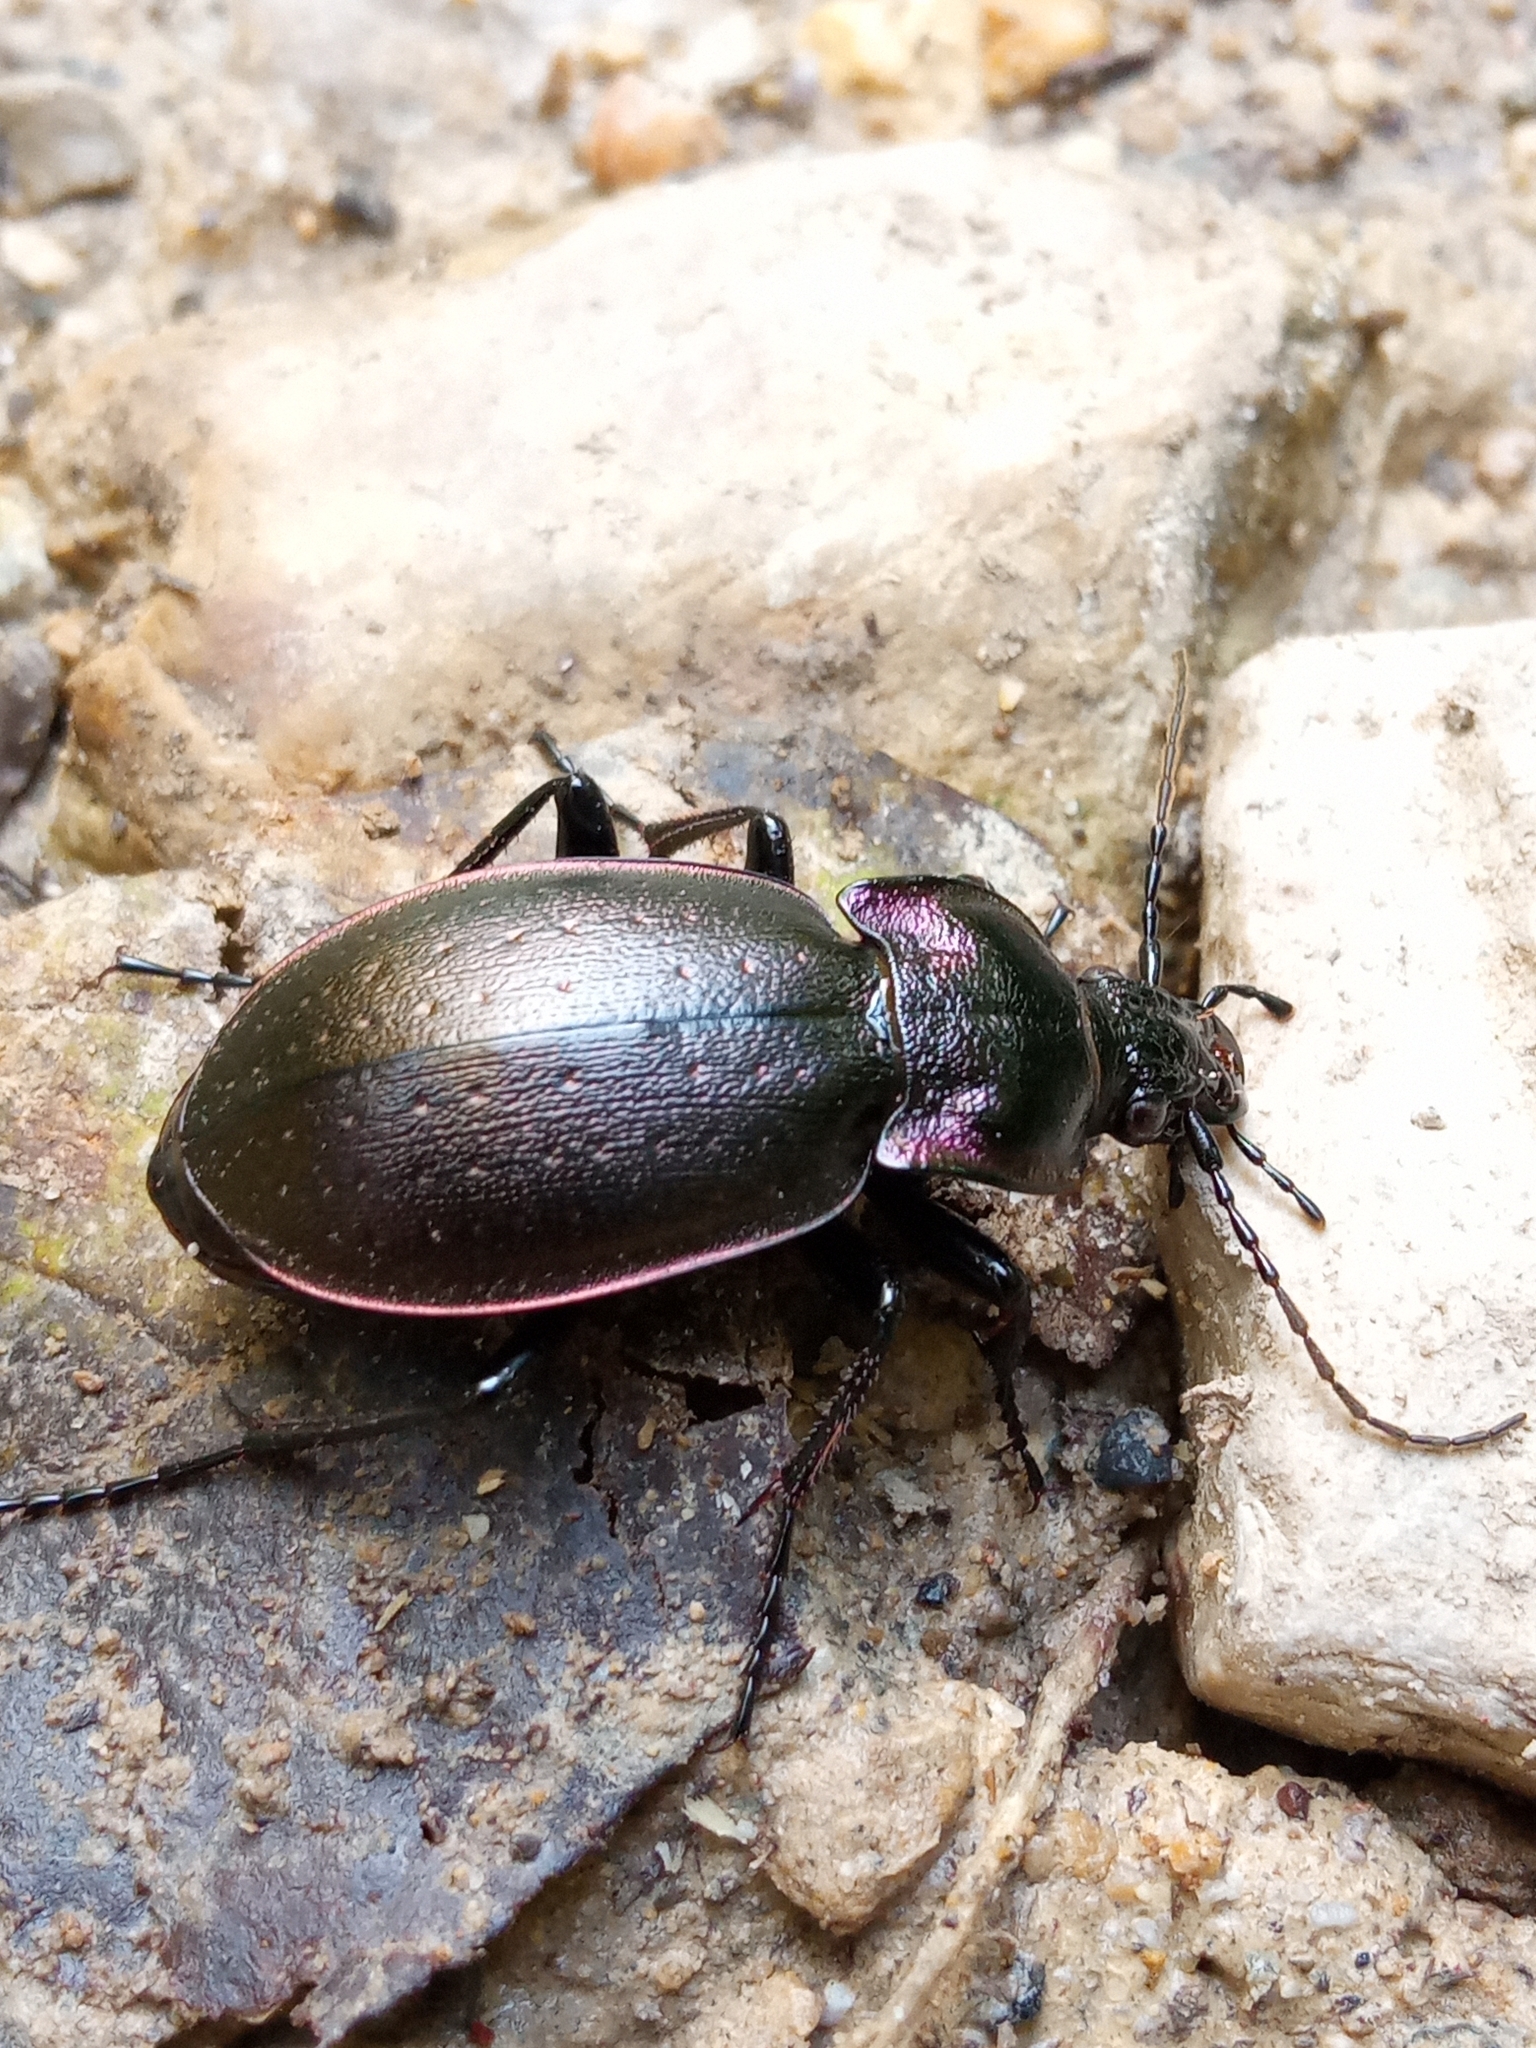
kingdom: Animalia
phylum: Arthropoda
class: Insecta
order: Coleoptera
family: Carabidae
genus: Carabus
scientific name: Carabus nemoralis
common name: European ground beetle
